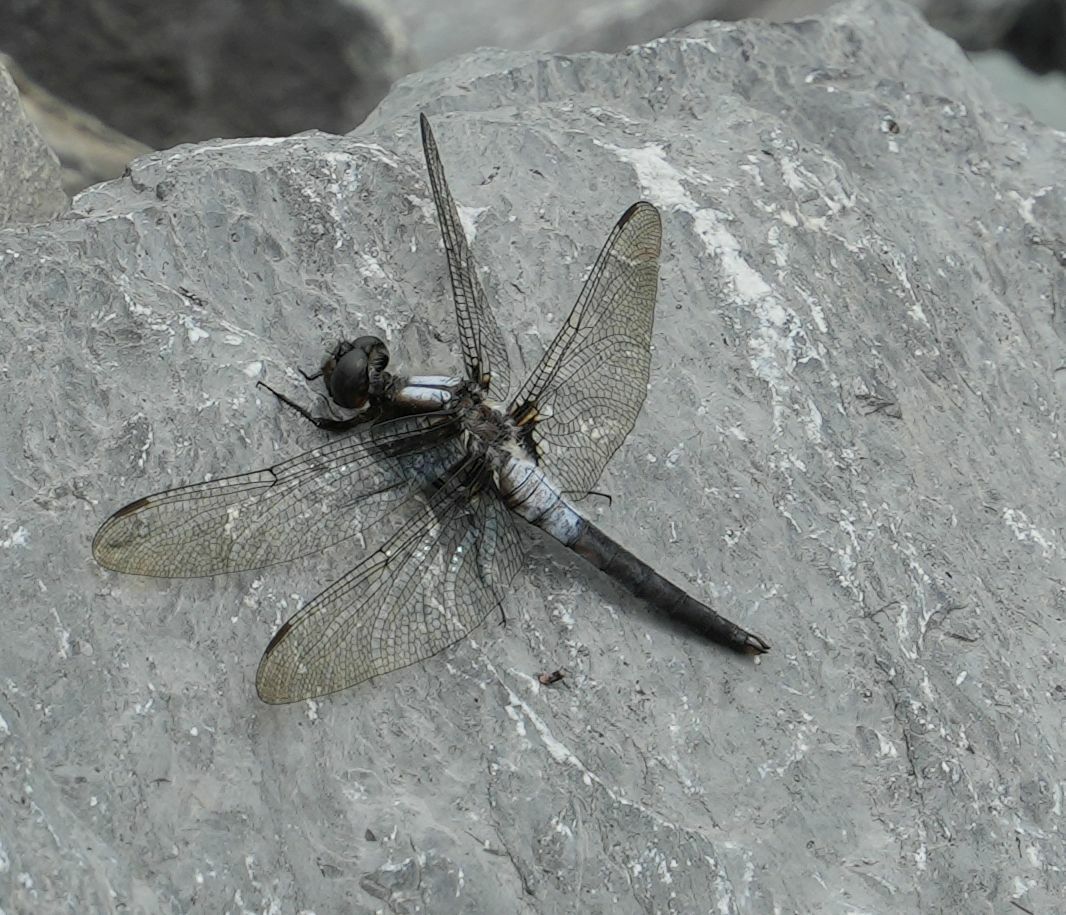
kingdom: Animalia
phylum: Arthropoda
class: Insecta
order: Odonata
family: Libellulidae
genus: Ladona
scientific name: Ladona julia
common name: Chalk-fronted corporal
